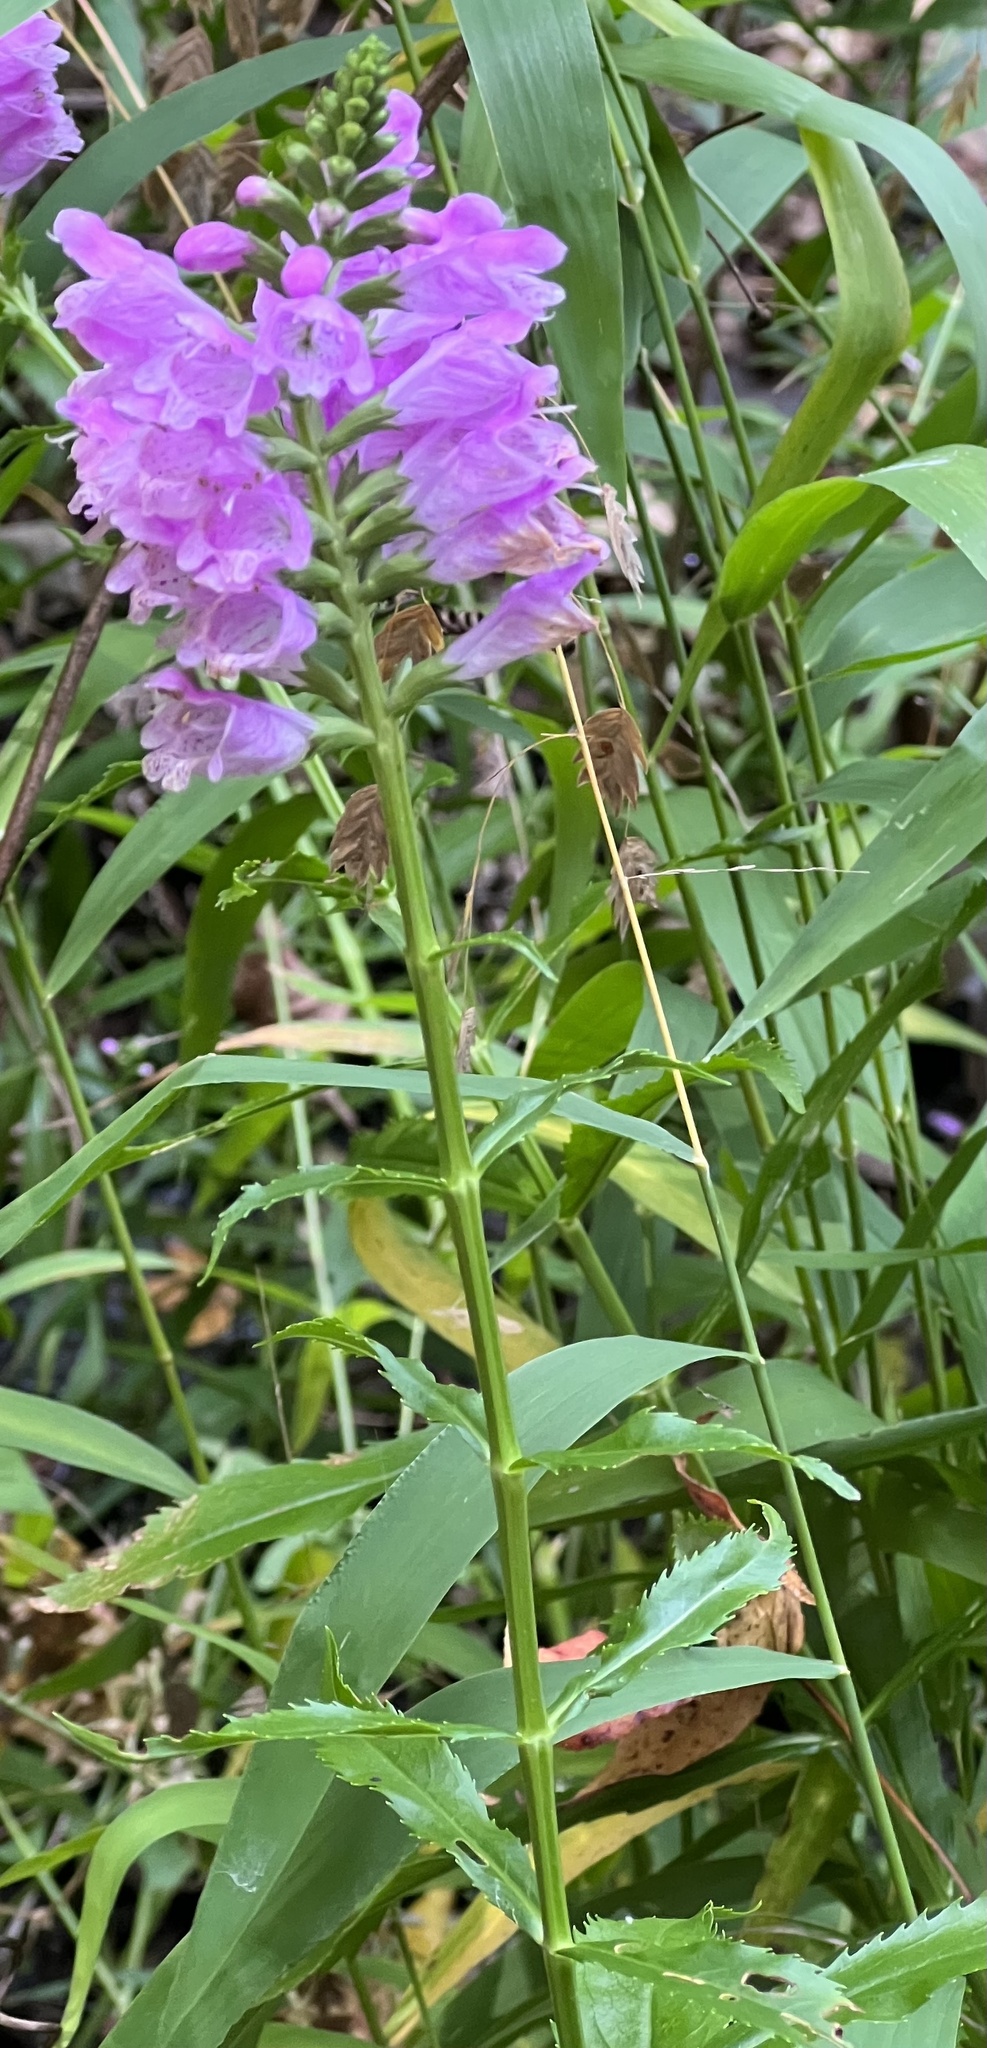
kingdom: Plantae
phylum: Tracheophyta
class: Magnoliopsida
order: Lamiales
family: Lamiaceae
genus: Physostegia
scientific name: Physostegia virginiana
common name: Obedient-plant
